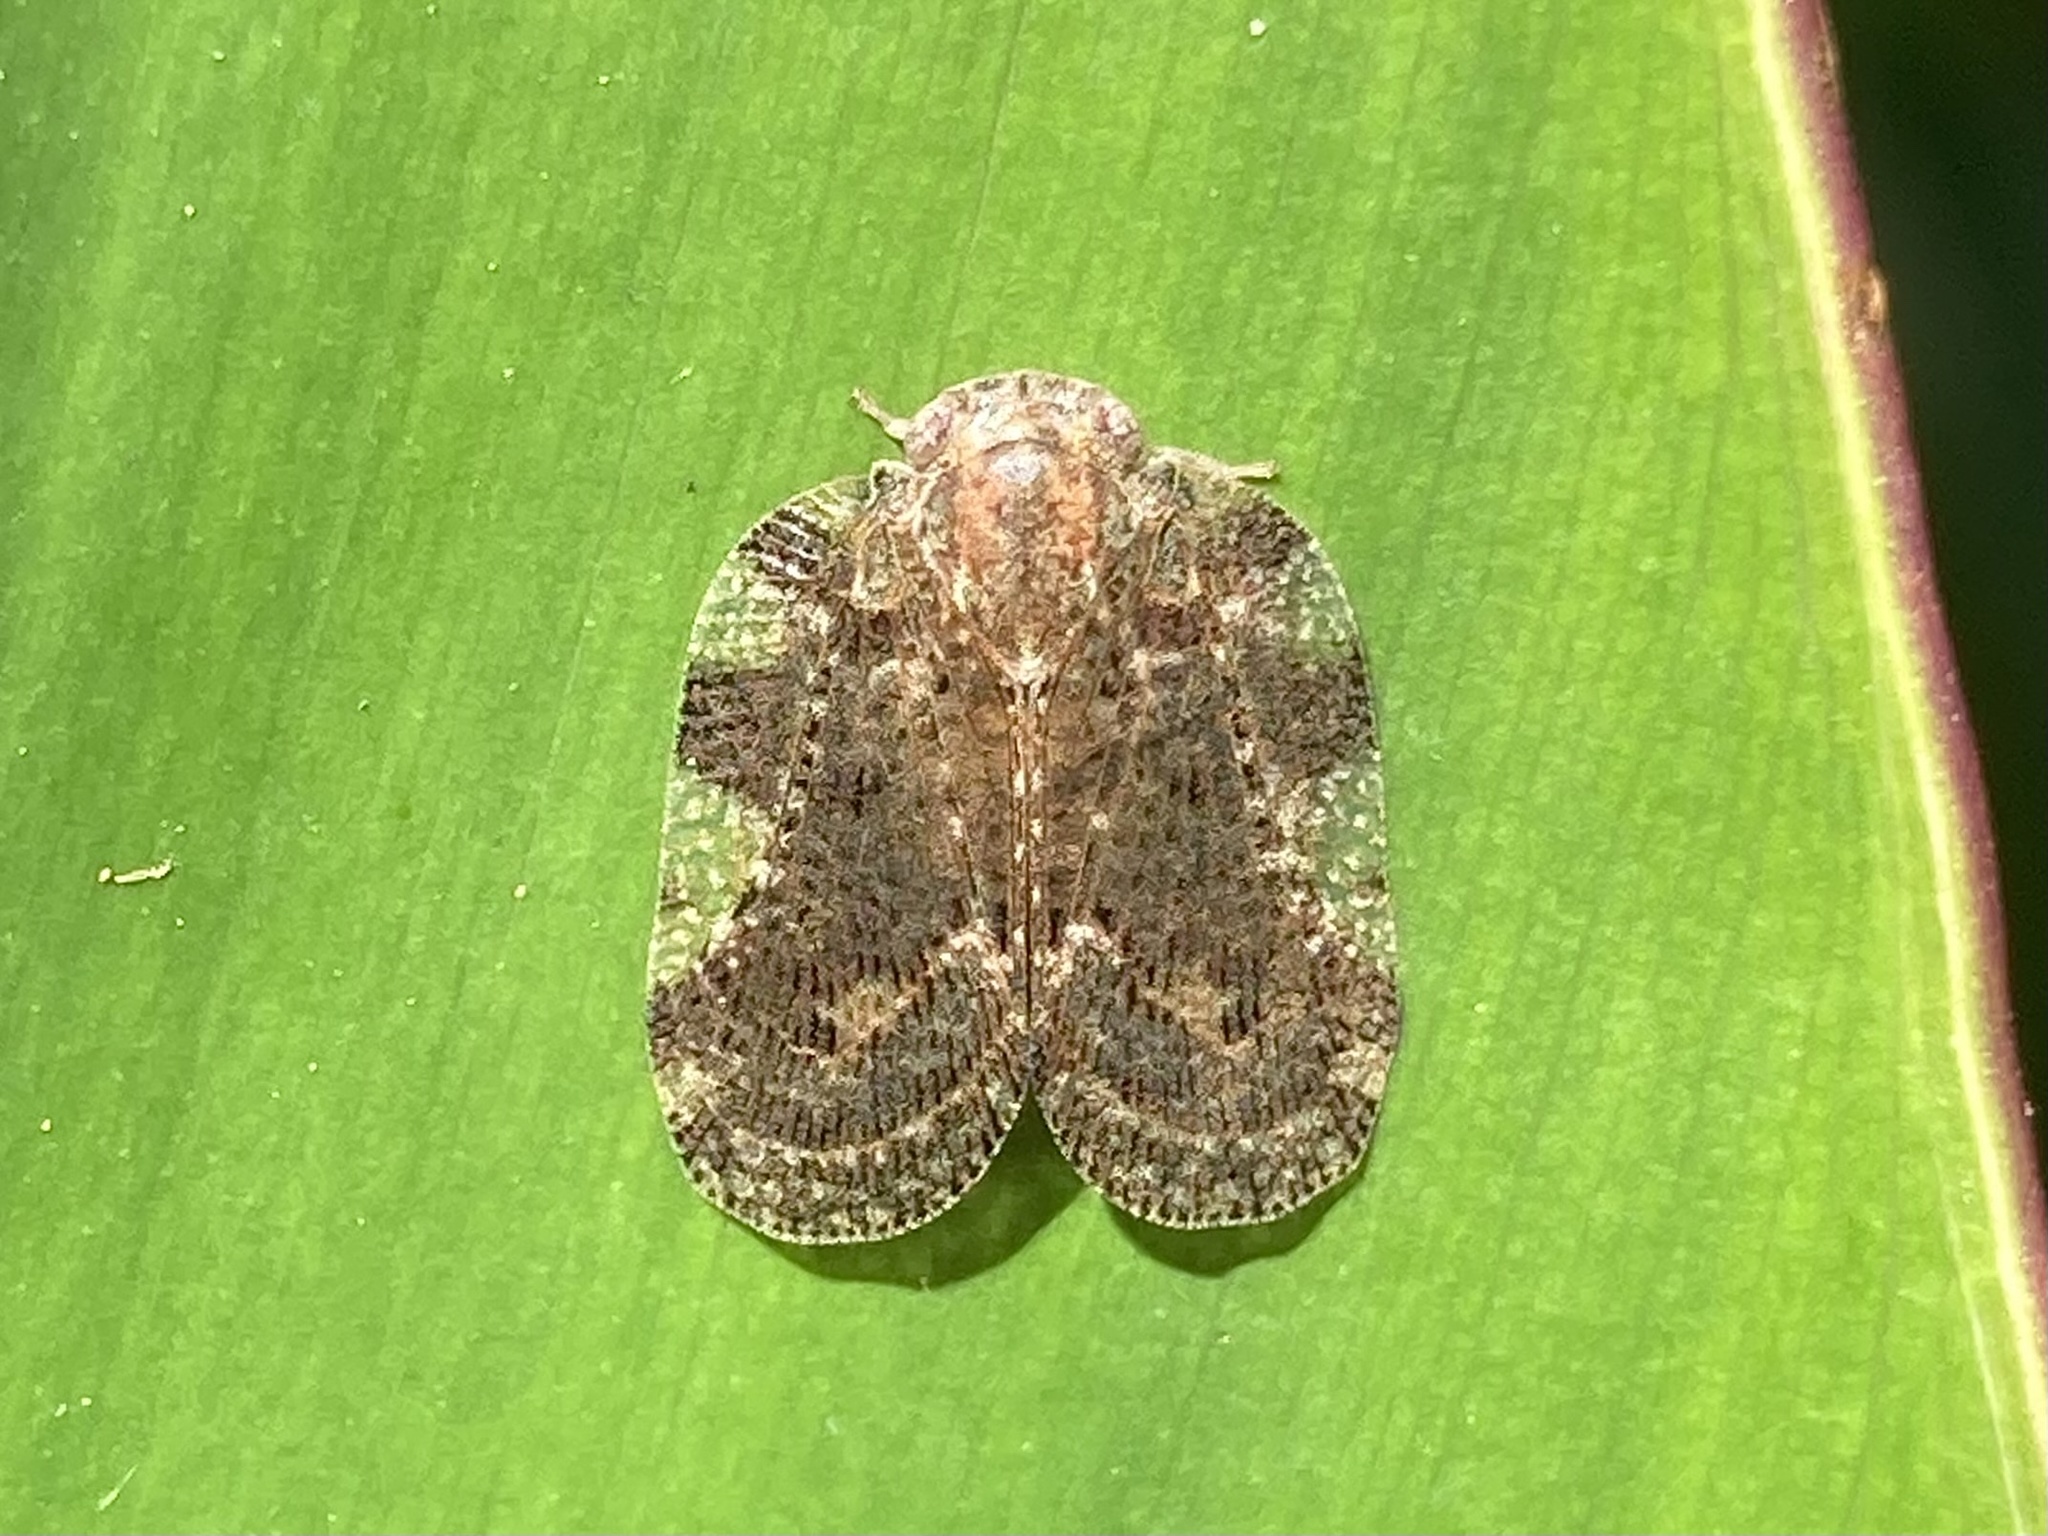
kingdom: Animalia
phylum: Arthropoda
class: Insecta
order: Hemiptera
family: Ricaniidae
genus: Aprivesa
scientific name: Aprivesa exuta
